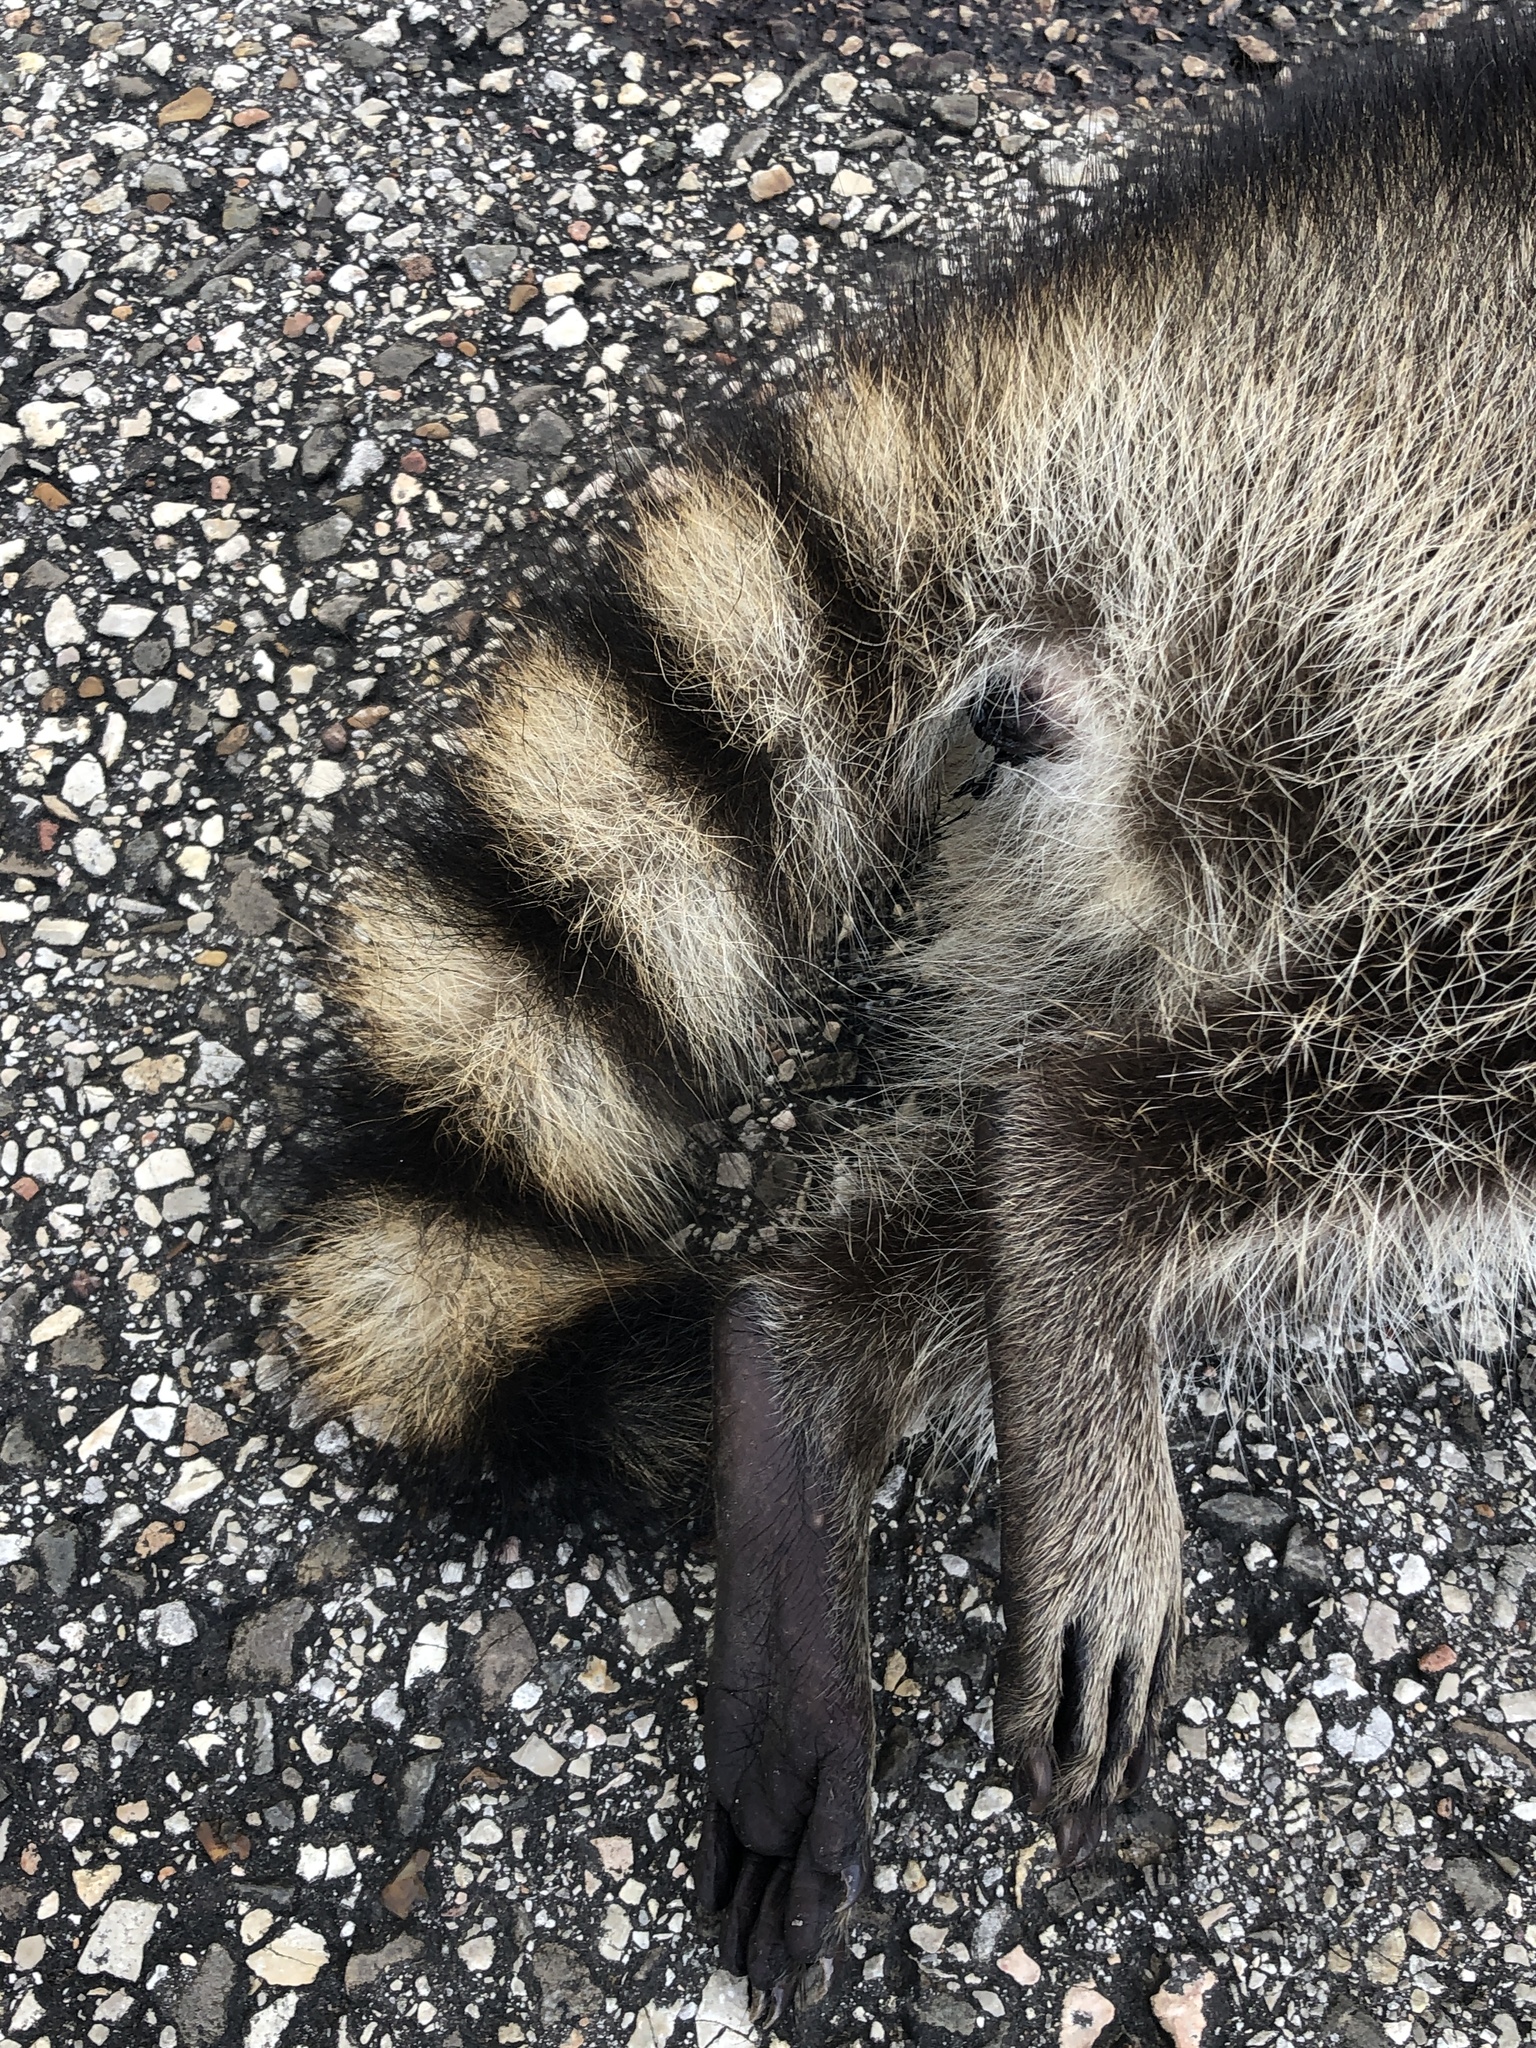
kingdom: Animalia
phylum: Chordata
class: Mammalia
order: Carnivora
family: Procyonidae
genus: Procyon
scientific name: Procyon lotor
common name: Raccoon
